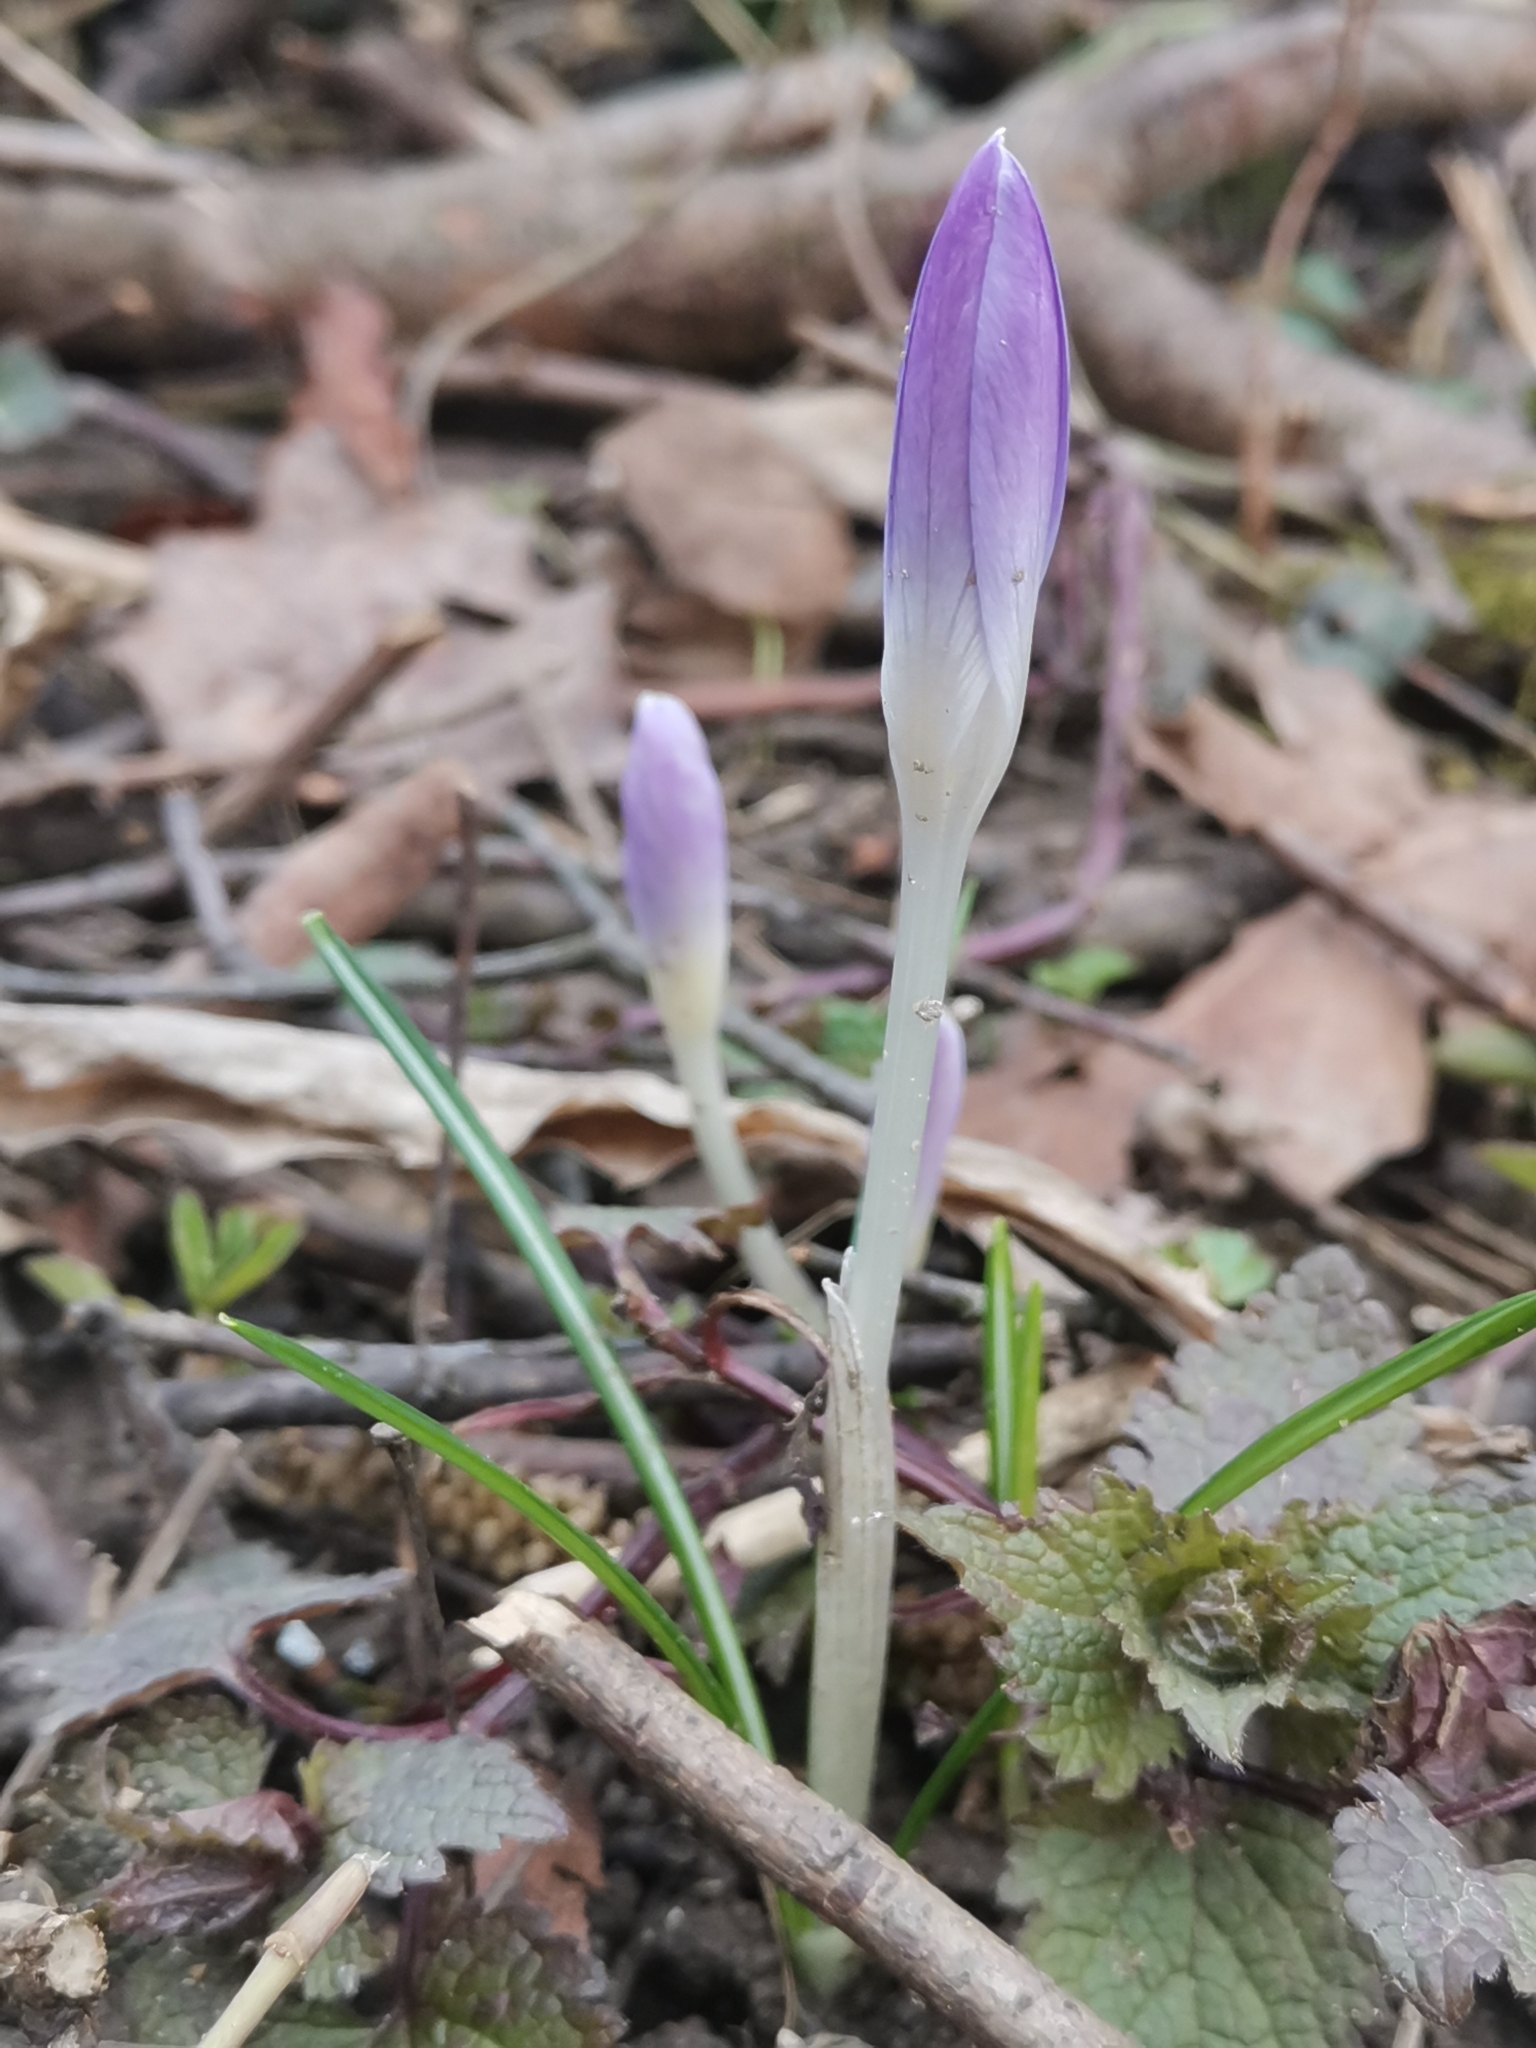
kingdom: Plantae
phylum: Tracheophyta
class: Liliopsida
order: Asparagales
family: Iridaceae
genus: Crocus
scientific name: Crocus tommasinianus
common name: Early crocus
